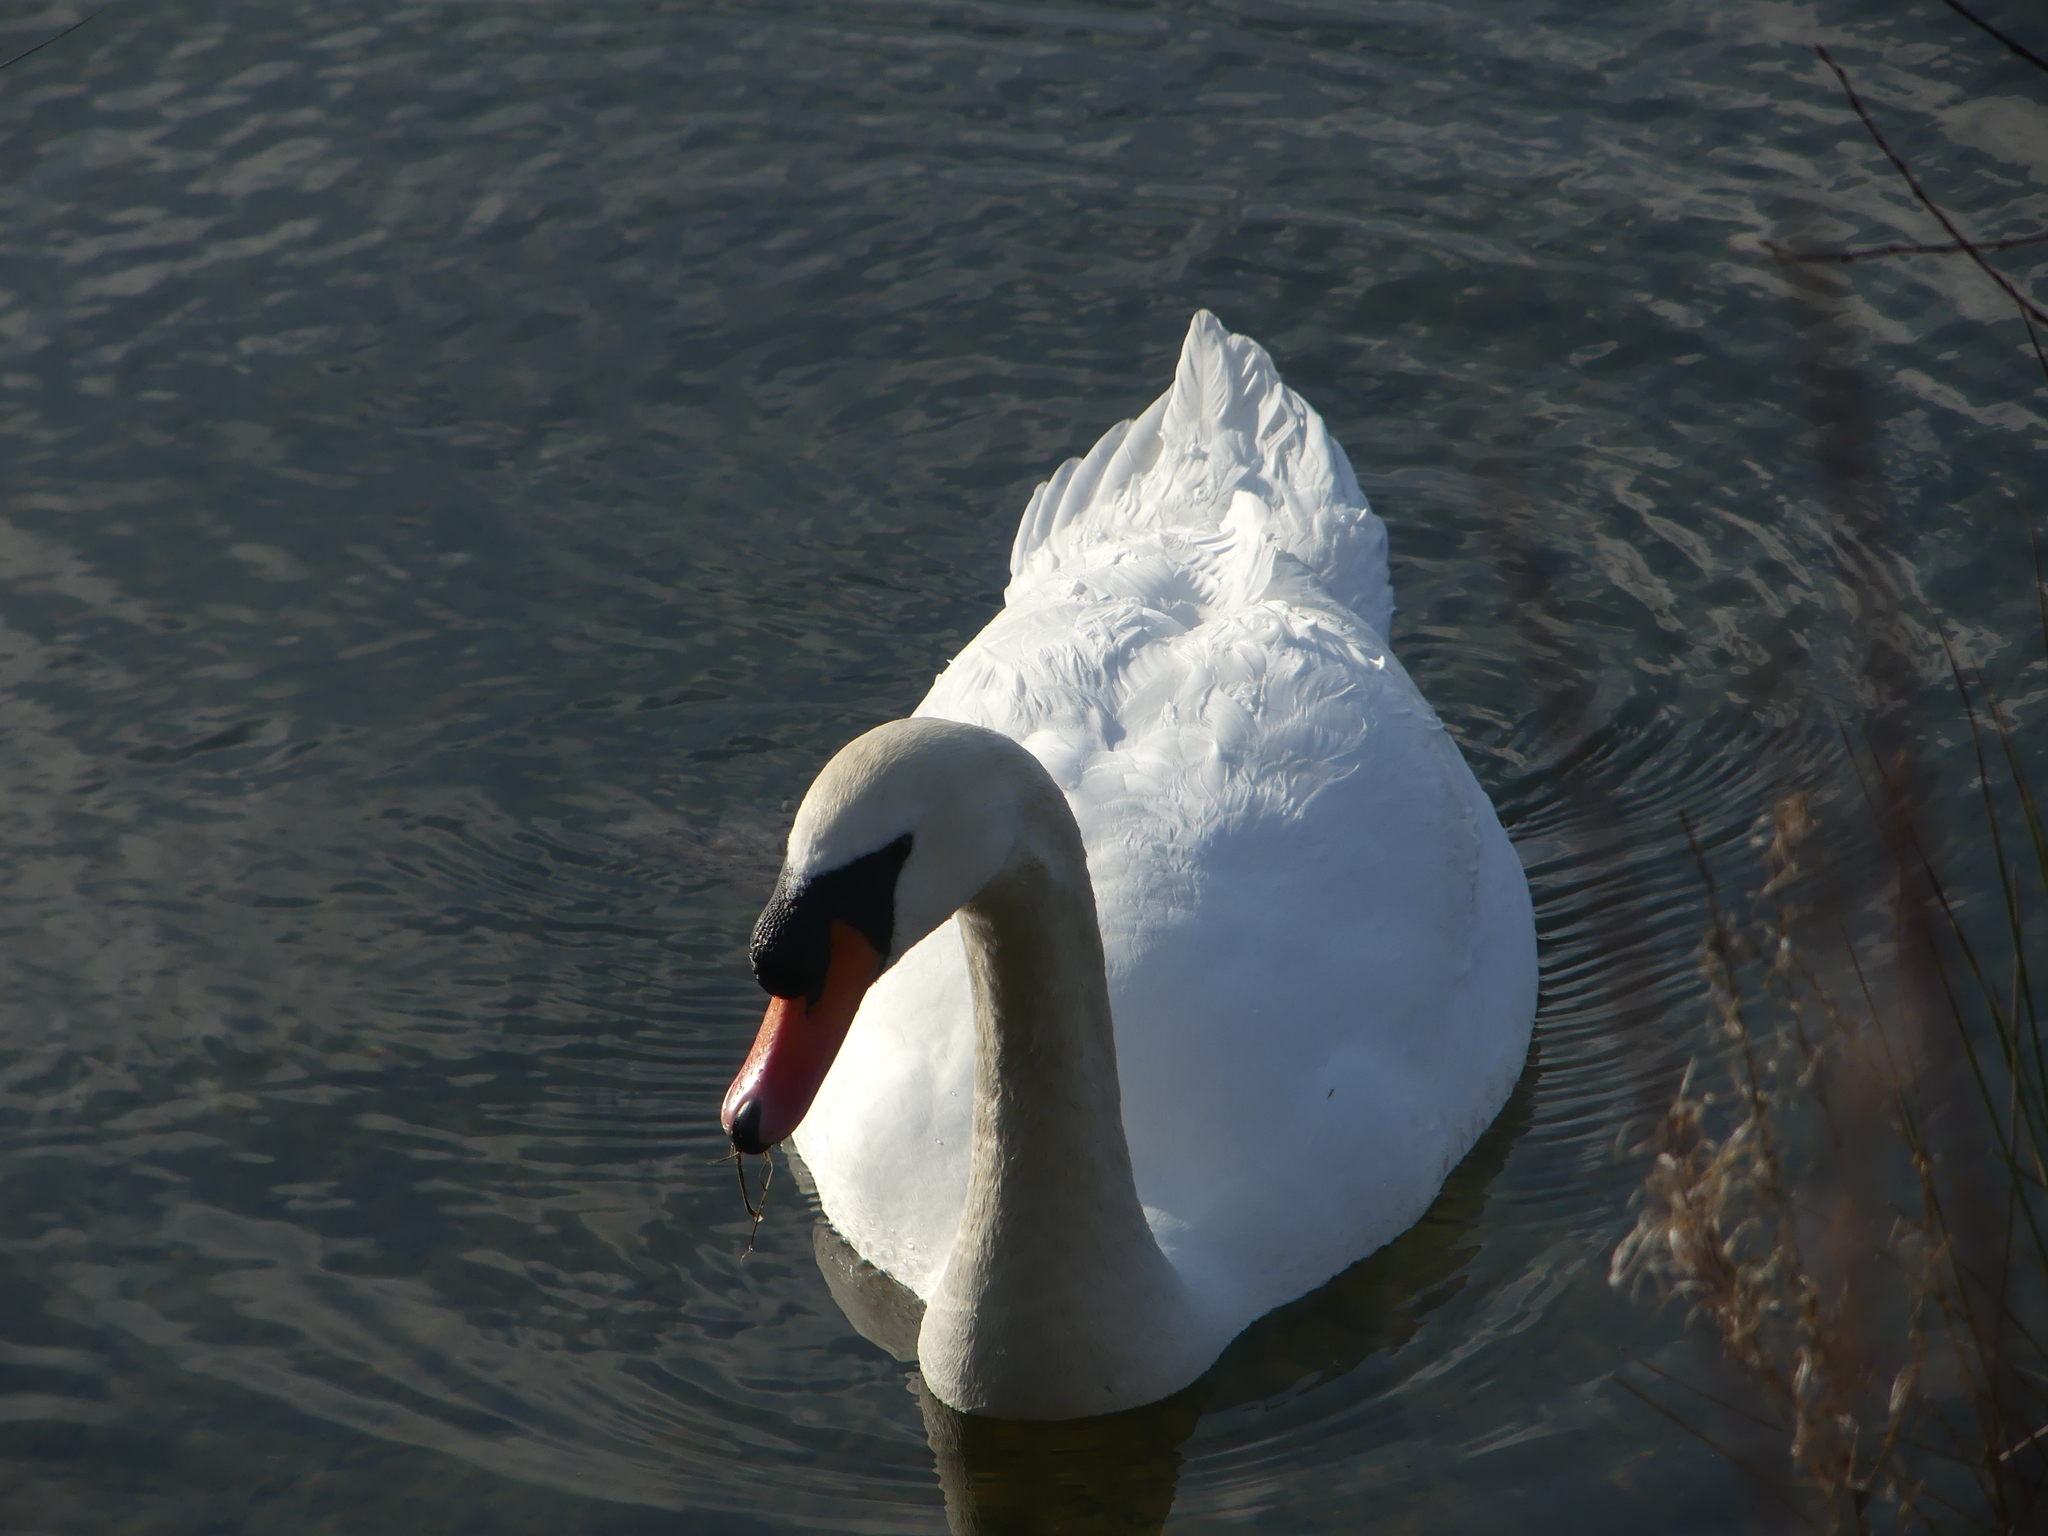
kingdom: Animalia
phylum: Chordata
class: Aves
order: Anseriformes
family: Anatidae
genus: Cygnus
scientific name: Cygnus olor
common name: Mute swan
